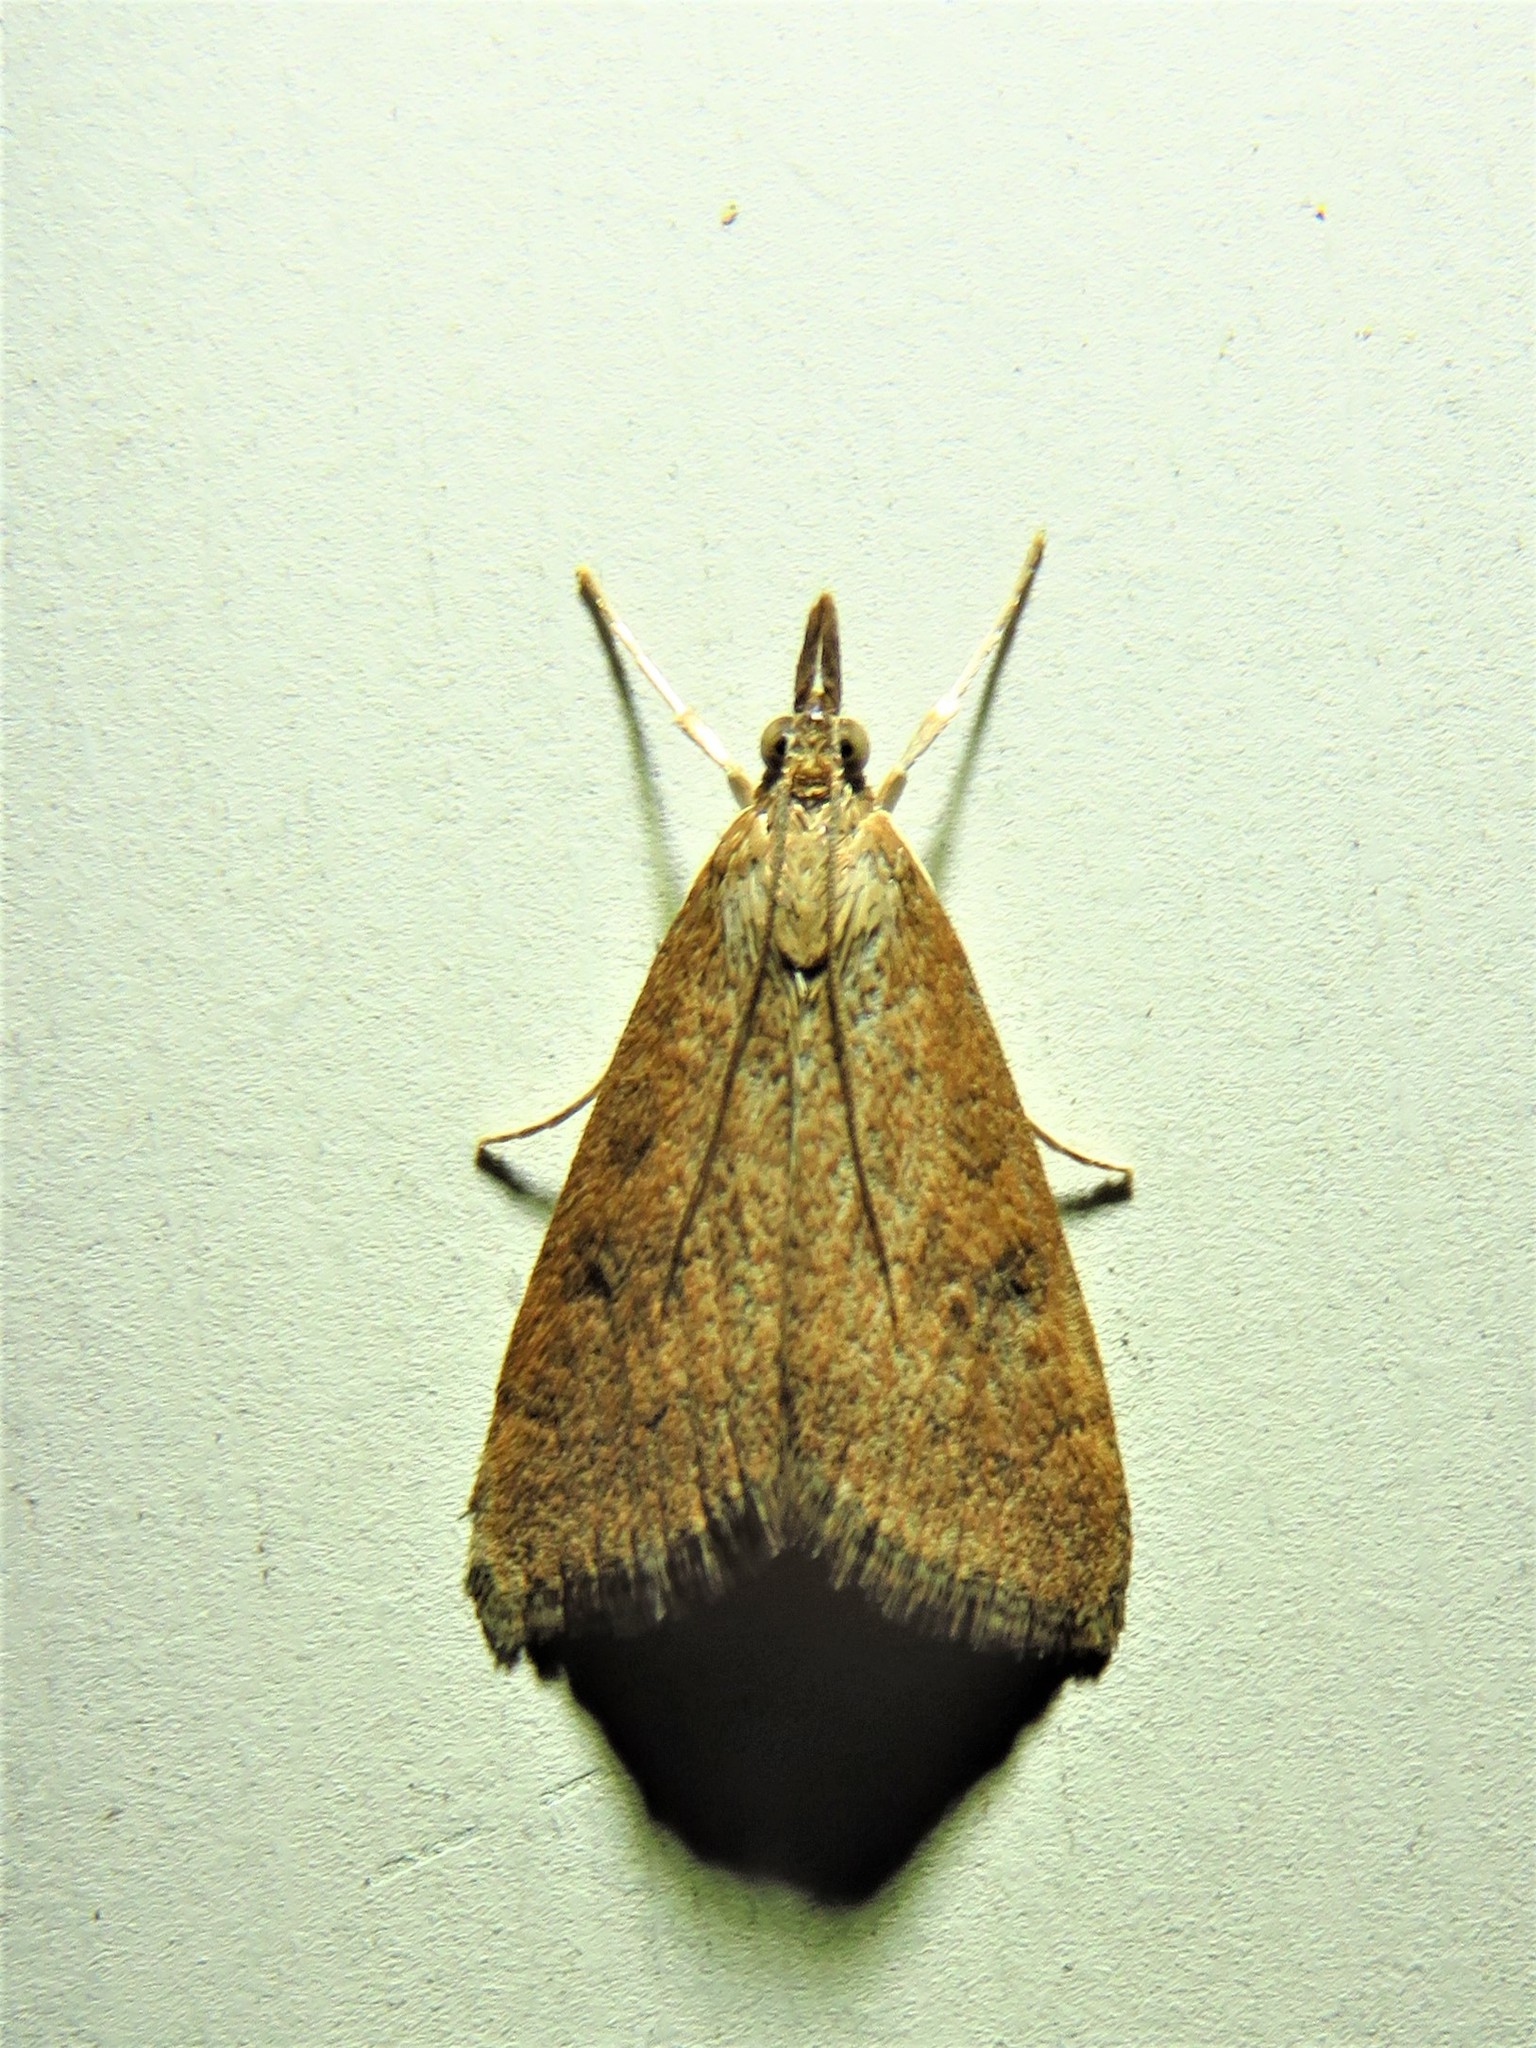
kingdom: Animalia
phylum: Arthropoda
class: Insecta
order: Lepidoptera
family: Crambidae
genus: Udea
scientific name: Udea rubigalis
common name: Celery leaftier moth
